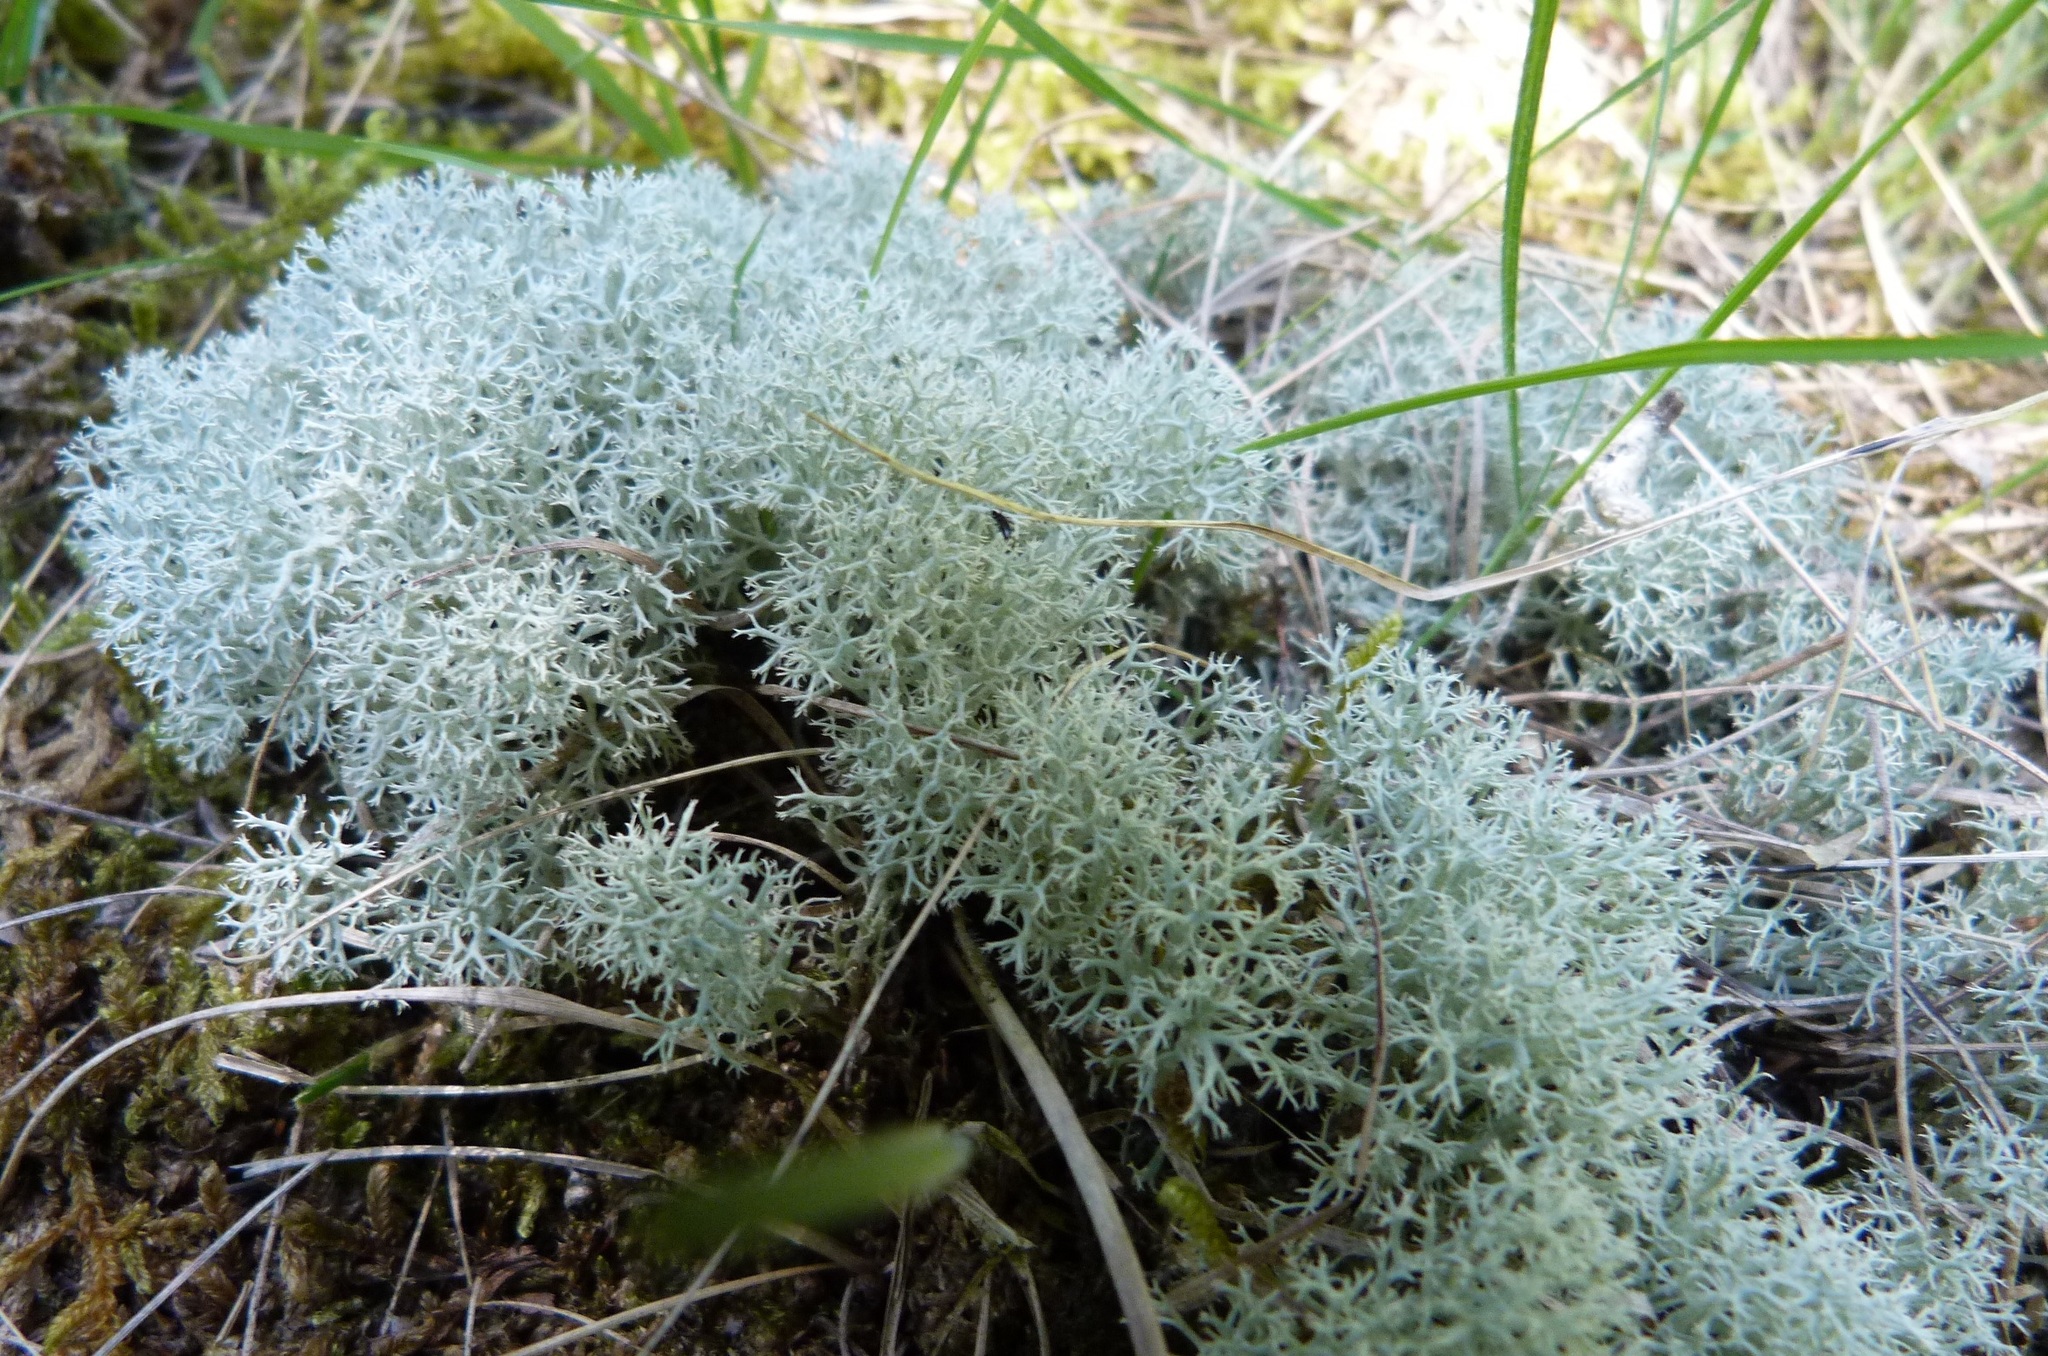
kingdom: Fungi
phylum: Ascomycota
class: Lecanoromycetes
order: Lecanorales
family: Cladoniaceae
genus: Cladonia
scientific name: Cladonia confusa
